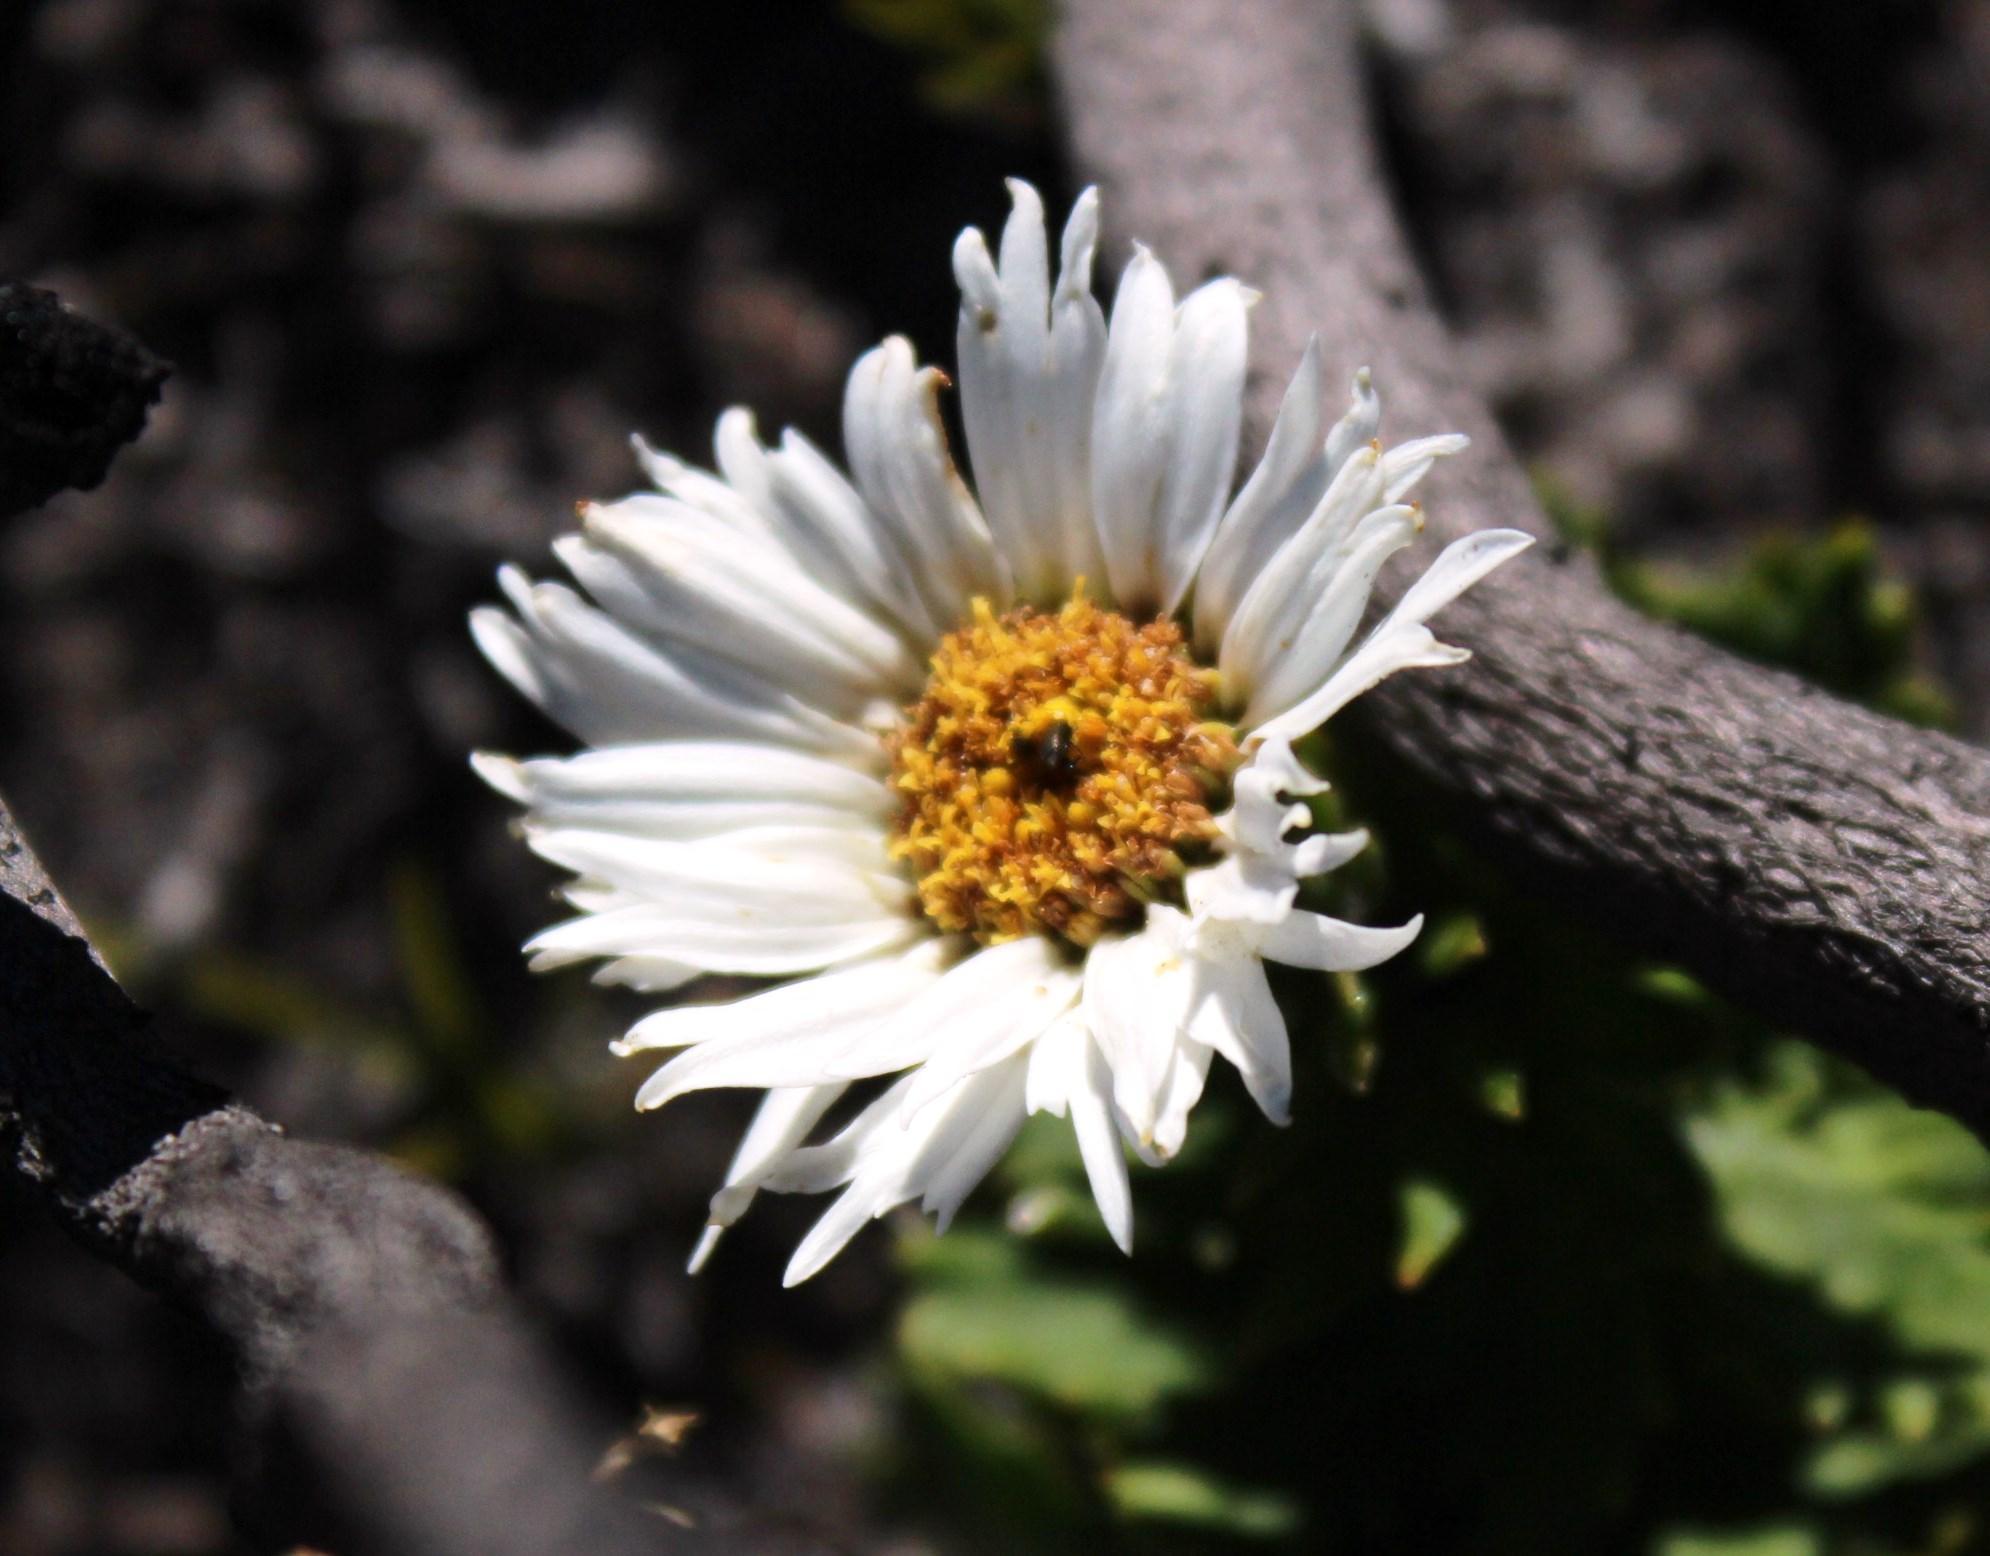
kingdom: Plantae
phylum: Tracheophyta
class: Magnoliopsida
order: Asterales
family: Asteraceae
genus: Osmitopsis
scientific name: Osmitopsis dentata
